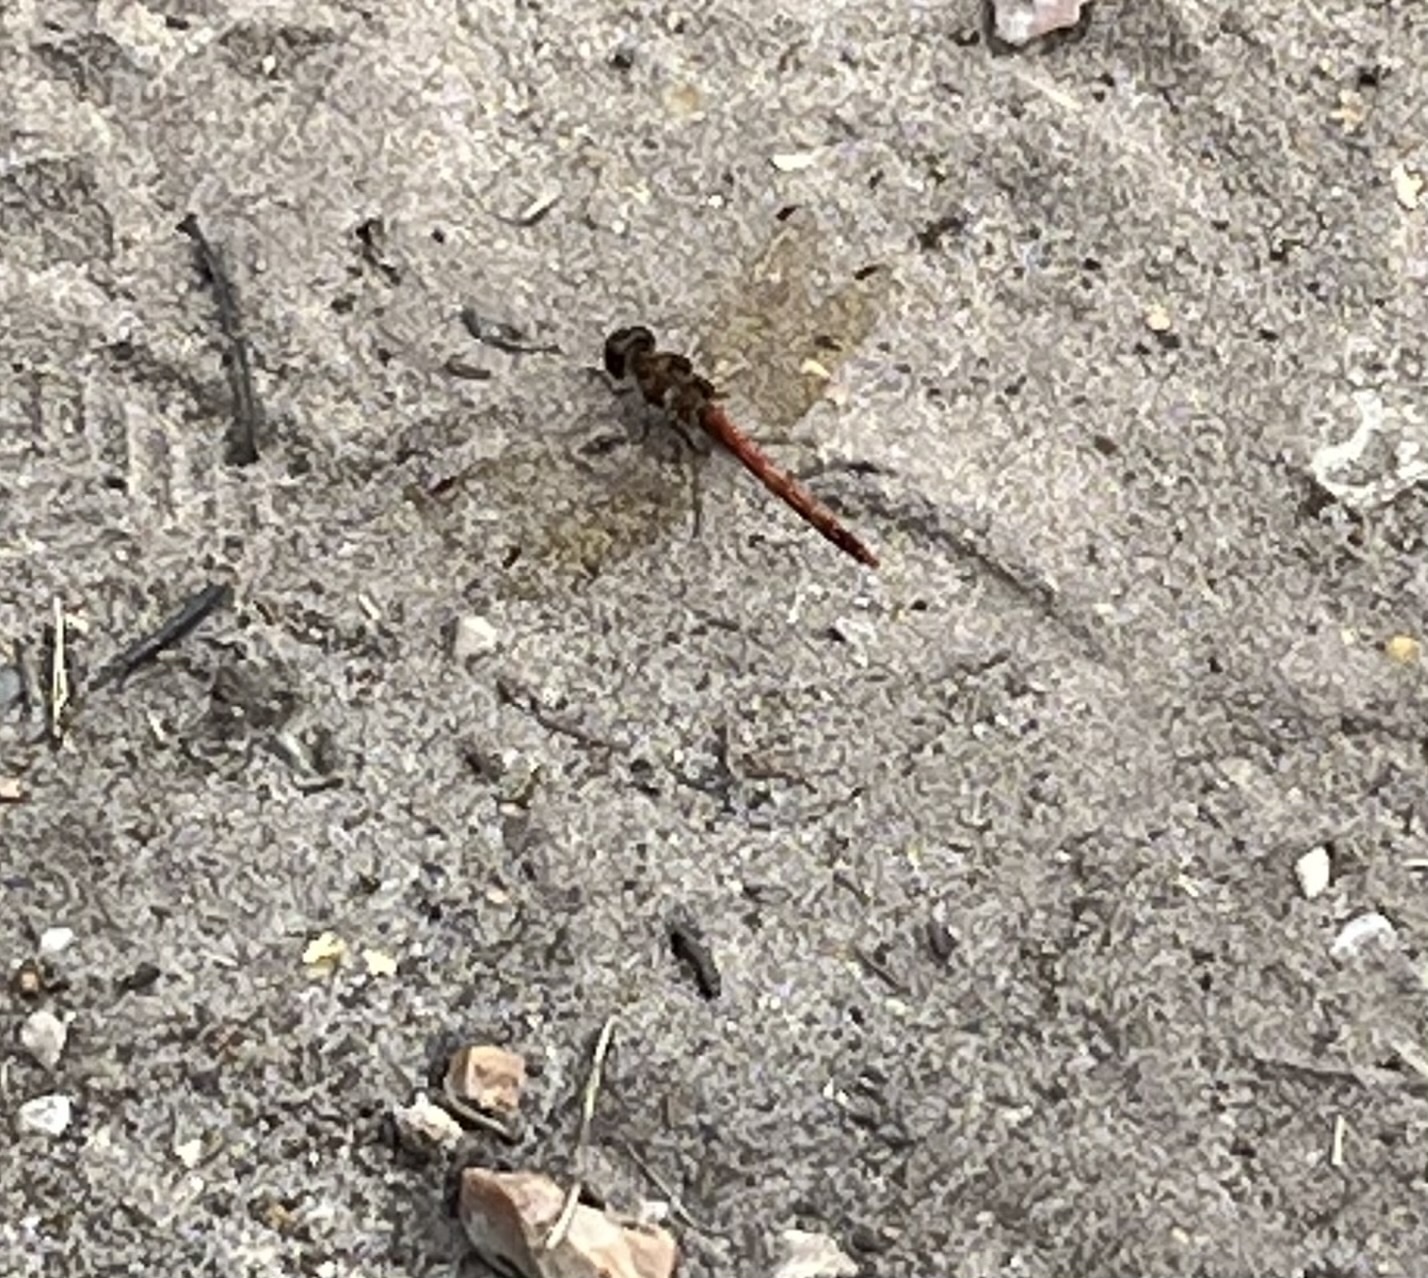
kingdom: Animalia
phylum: Arthropoda
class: Insecta
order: Odonata
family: Libellulidae
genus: Sympetrum
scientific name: Sympetrum striolatum
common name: Common darter
